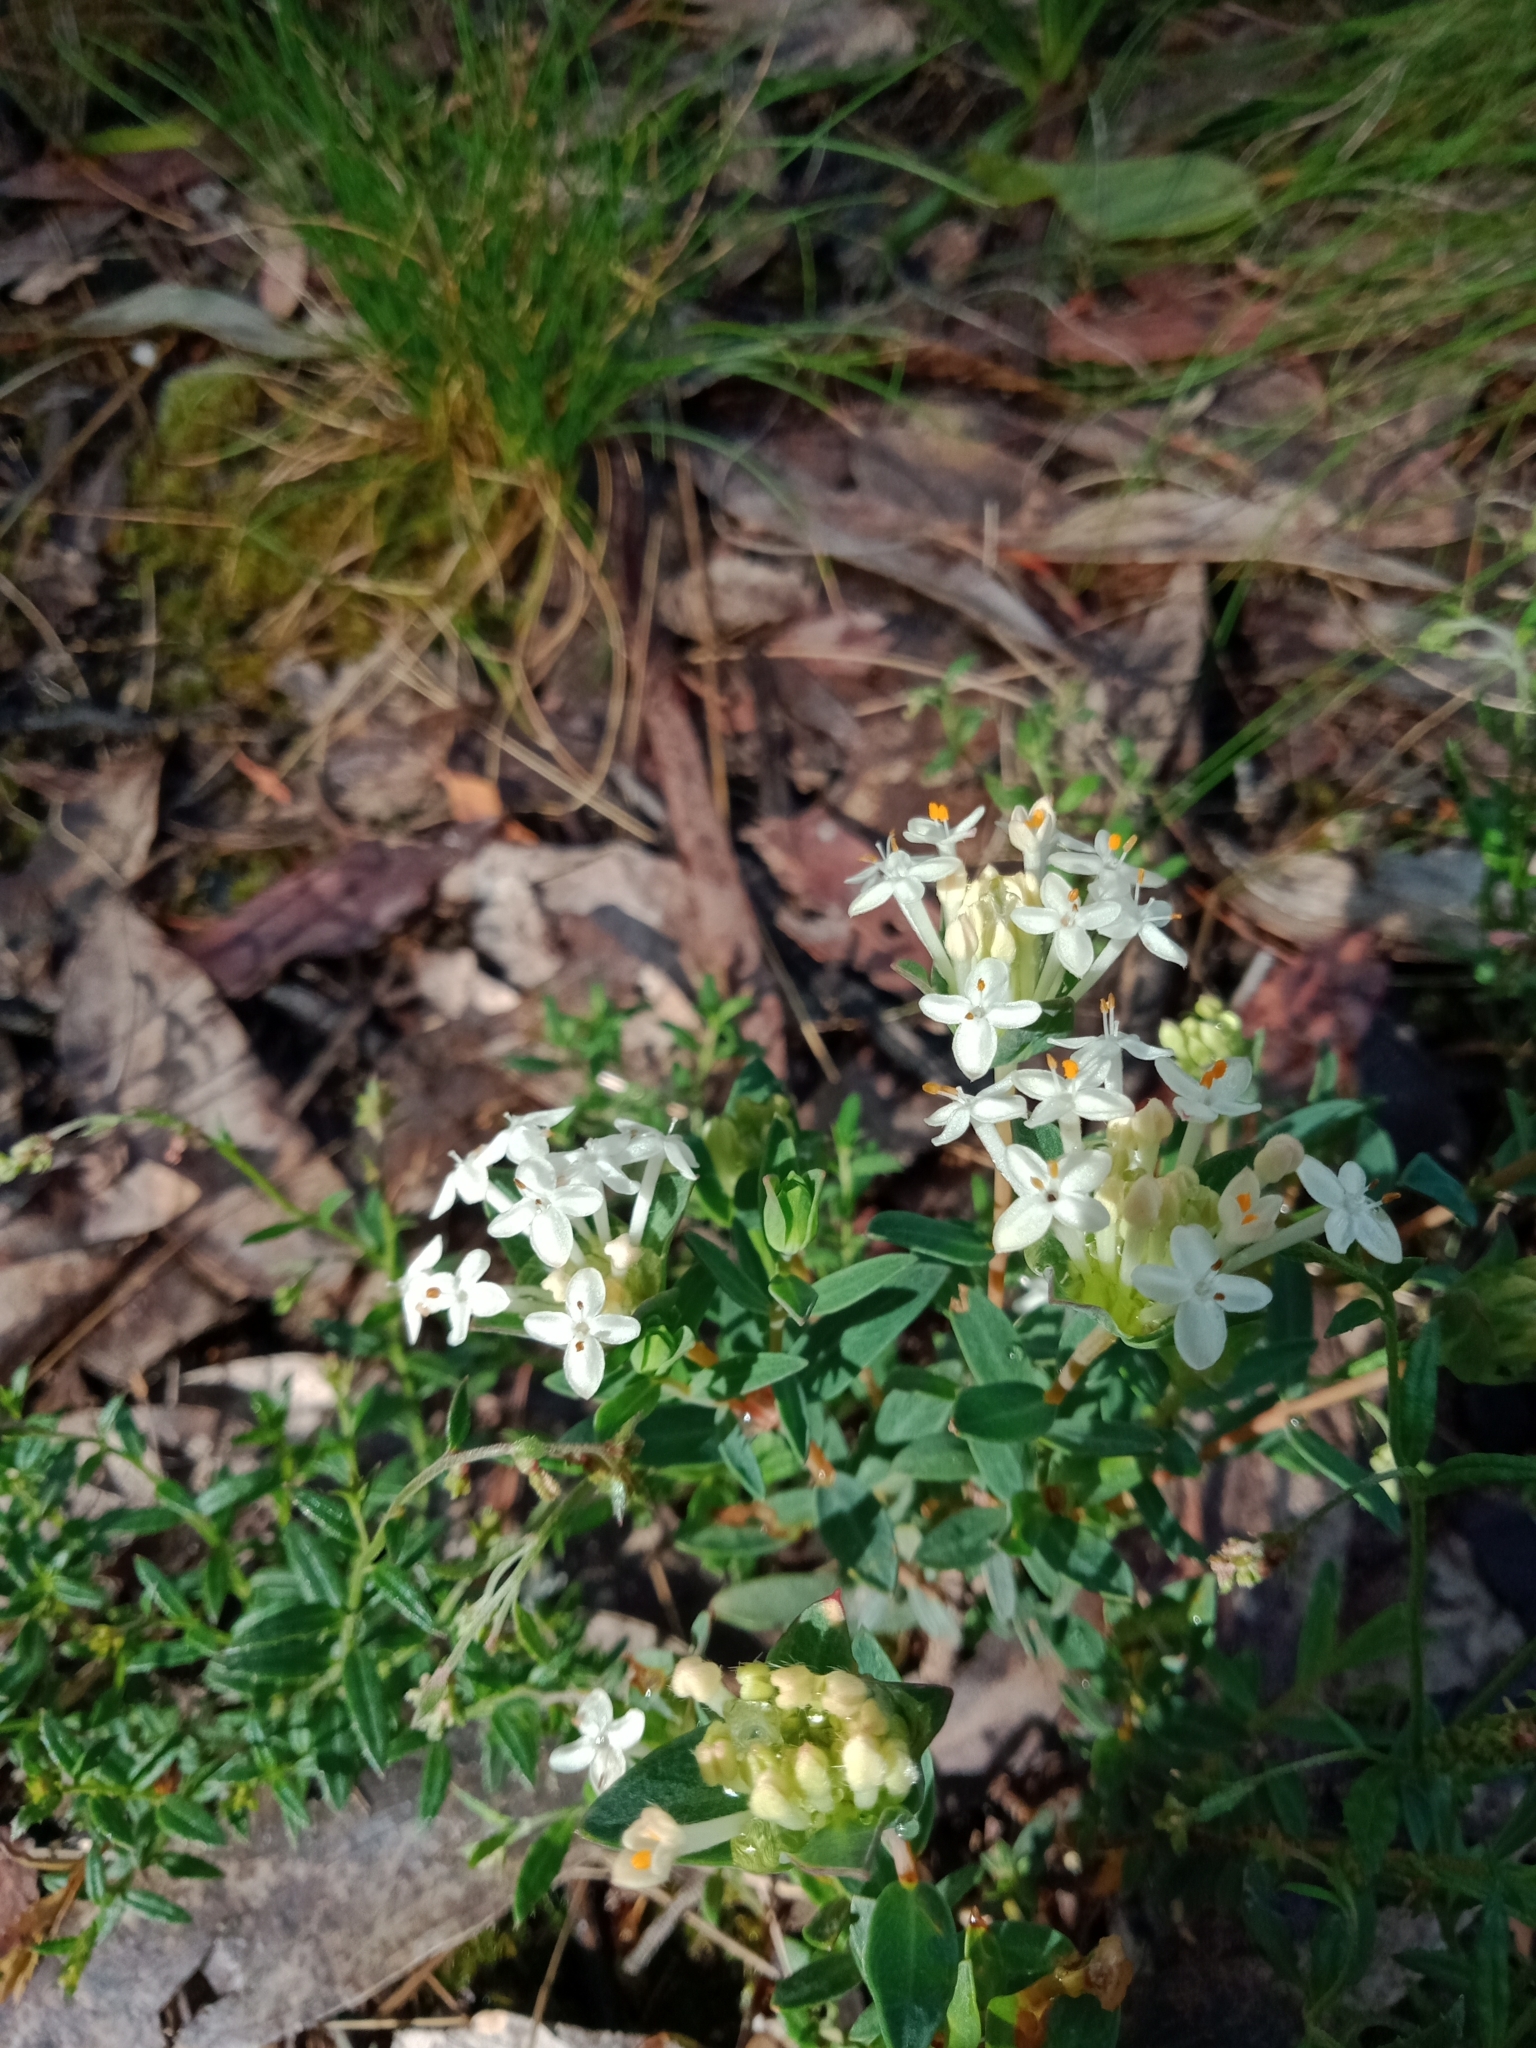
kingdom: Plantae
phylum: Tracheophyta
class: Magnoliopsida
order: Malvales
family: Thymelaeaceae
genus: Pimelea
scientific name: Pimelea humilis
